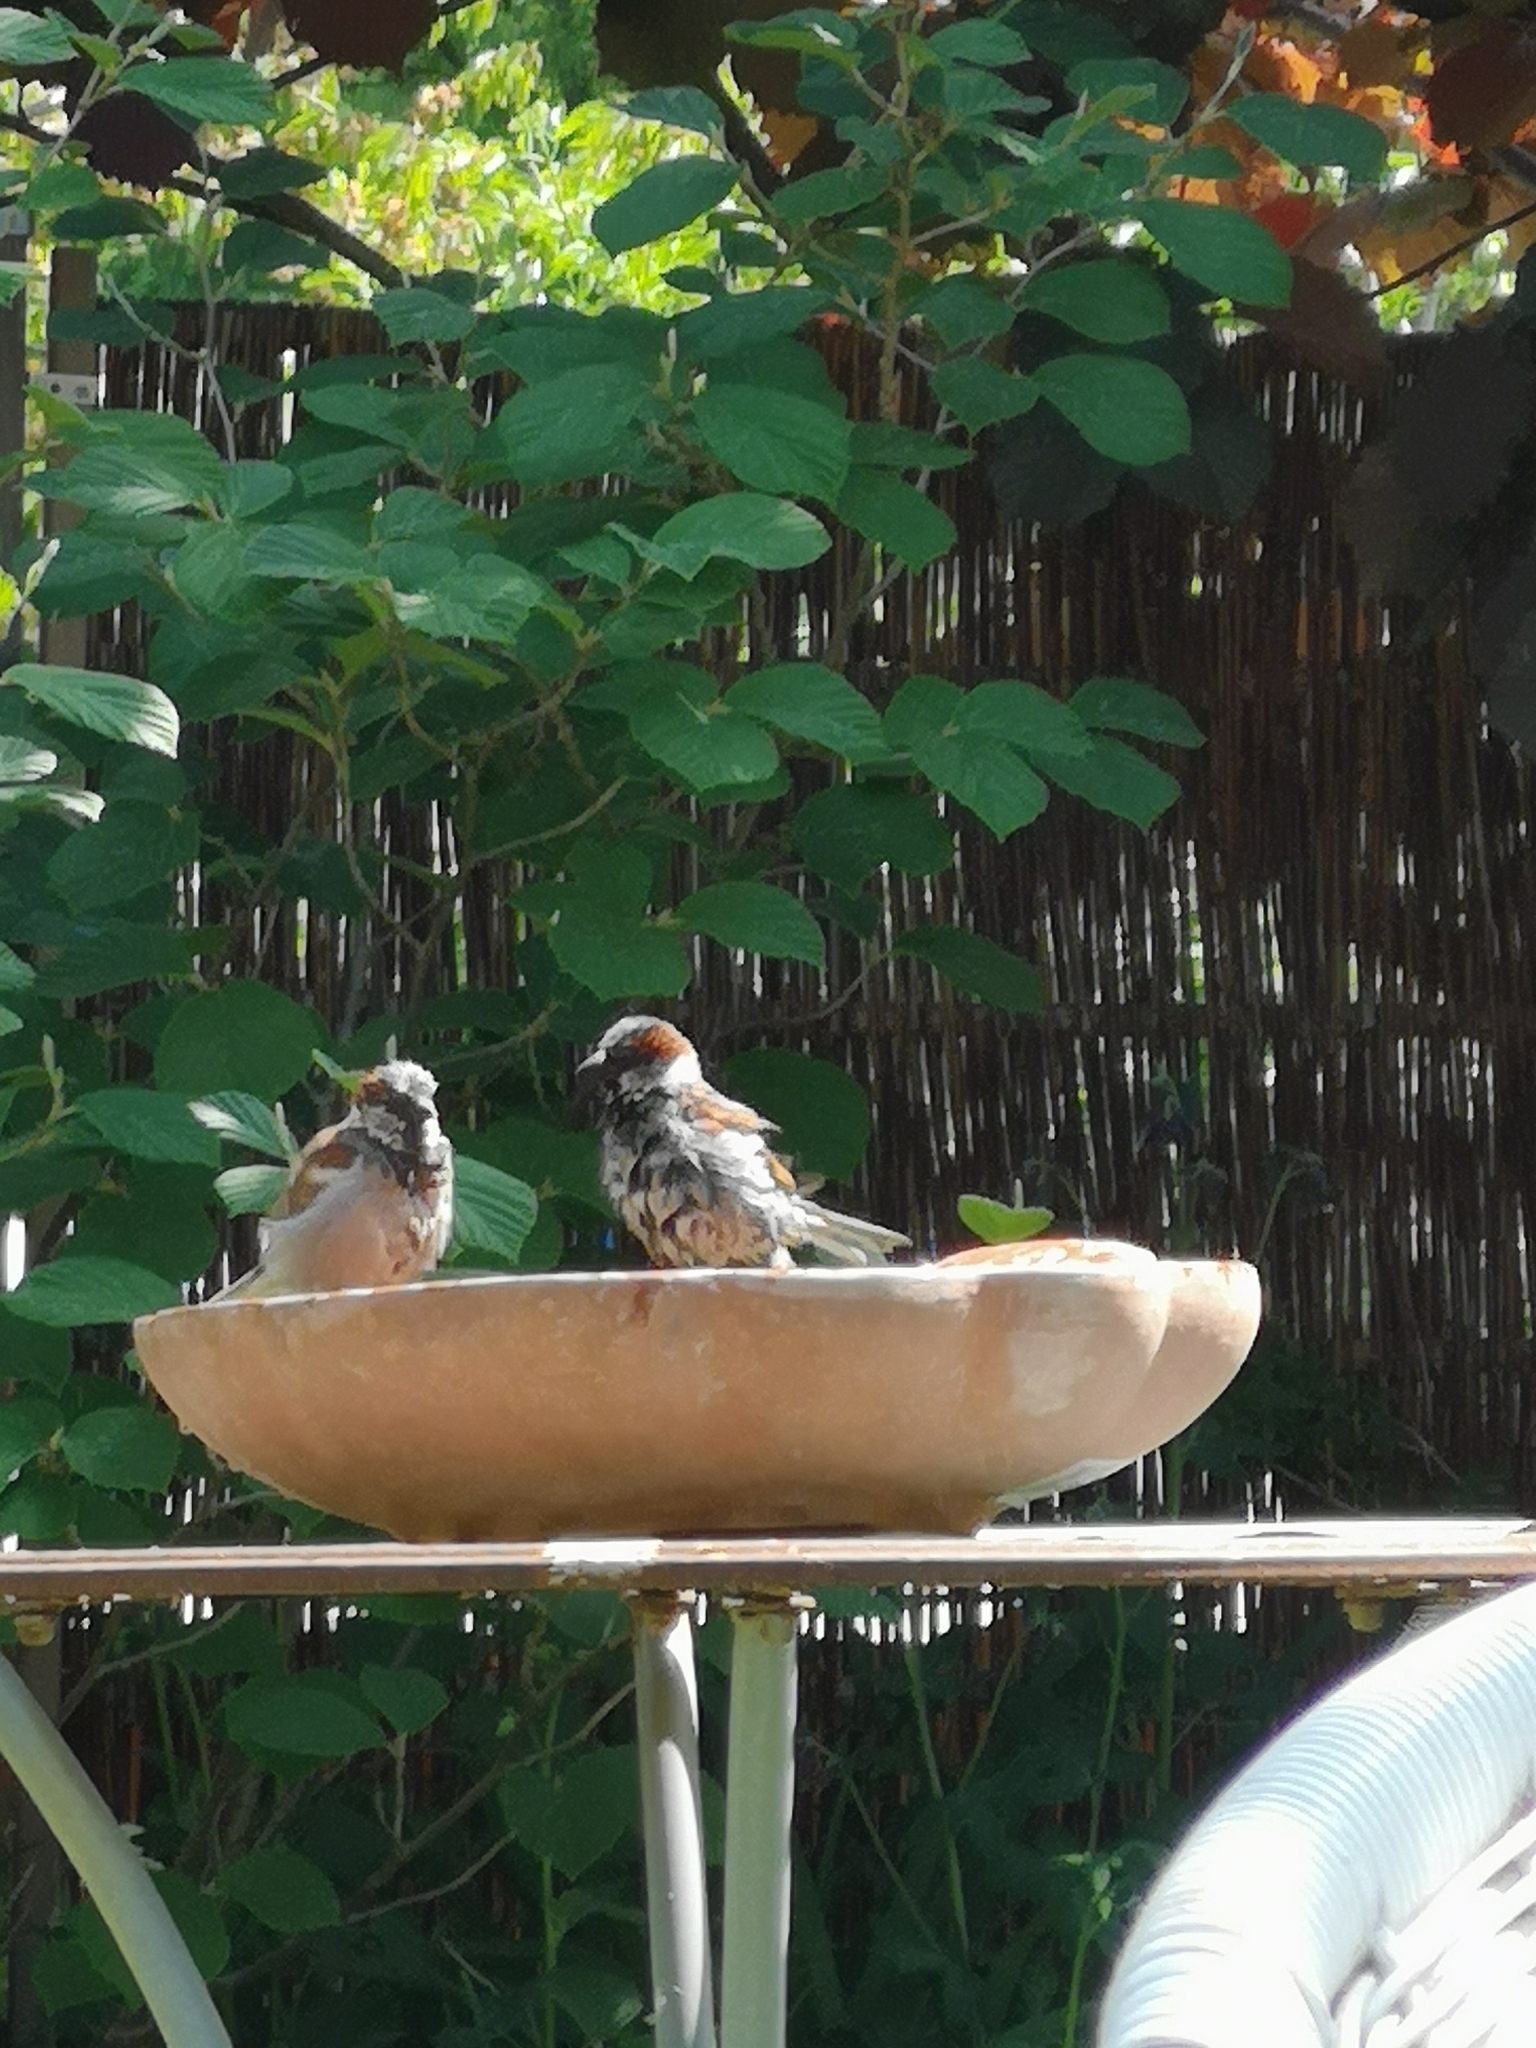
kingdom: Animalia
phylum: Chordata
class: Aves
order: Passeriformes
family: Passeridae
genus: Passer
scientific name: Passer domesticus
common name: House sparrow
